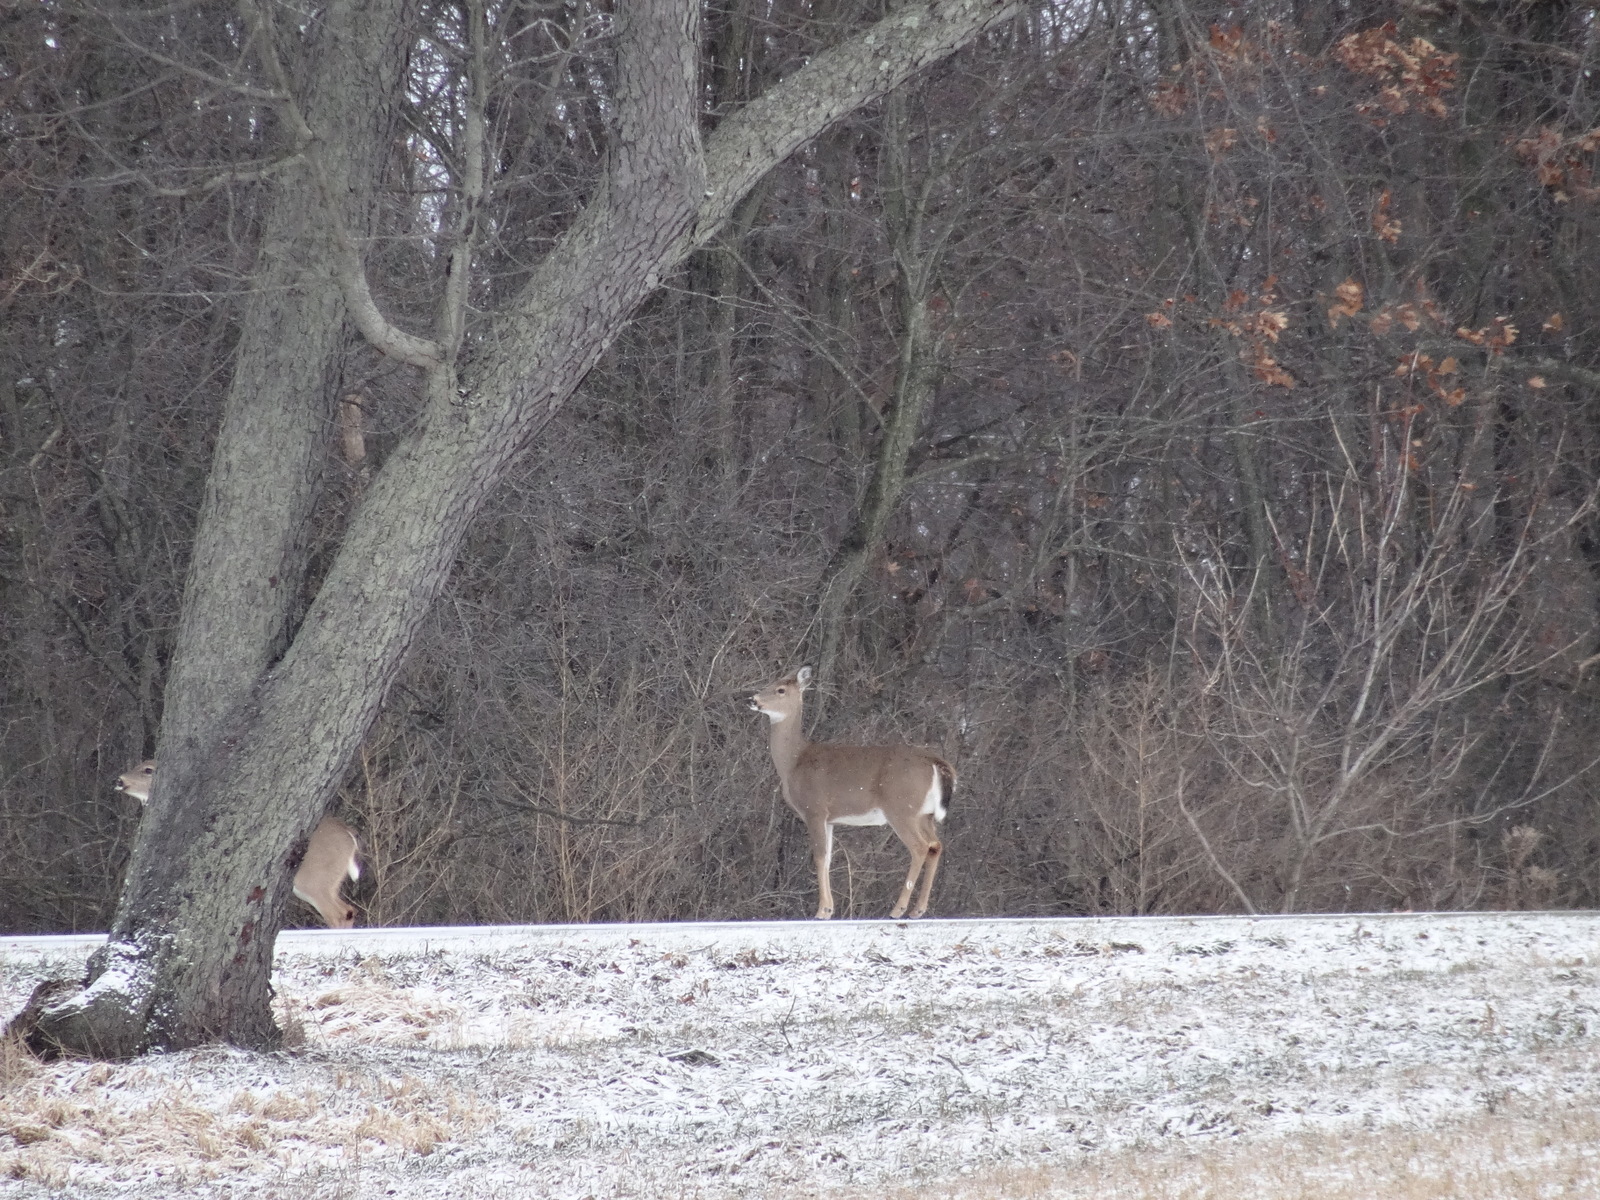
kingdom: Animalia
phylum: Chordata
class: Mammalia
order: Artiodactyla
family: Cervidae
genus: Odocoileus
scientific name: Odocoileus virginianus
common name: White-tailed deer
